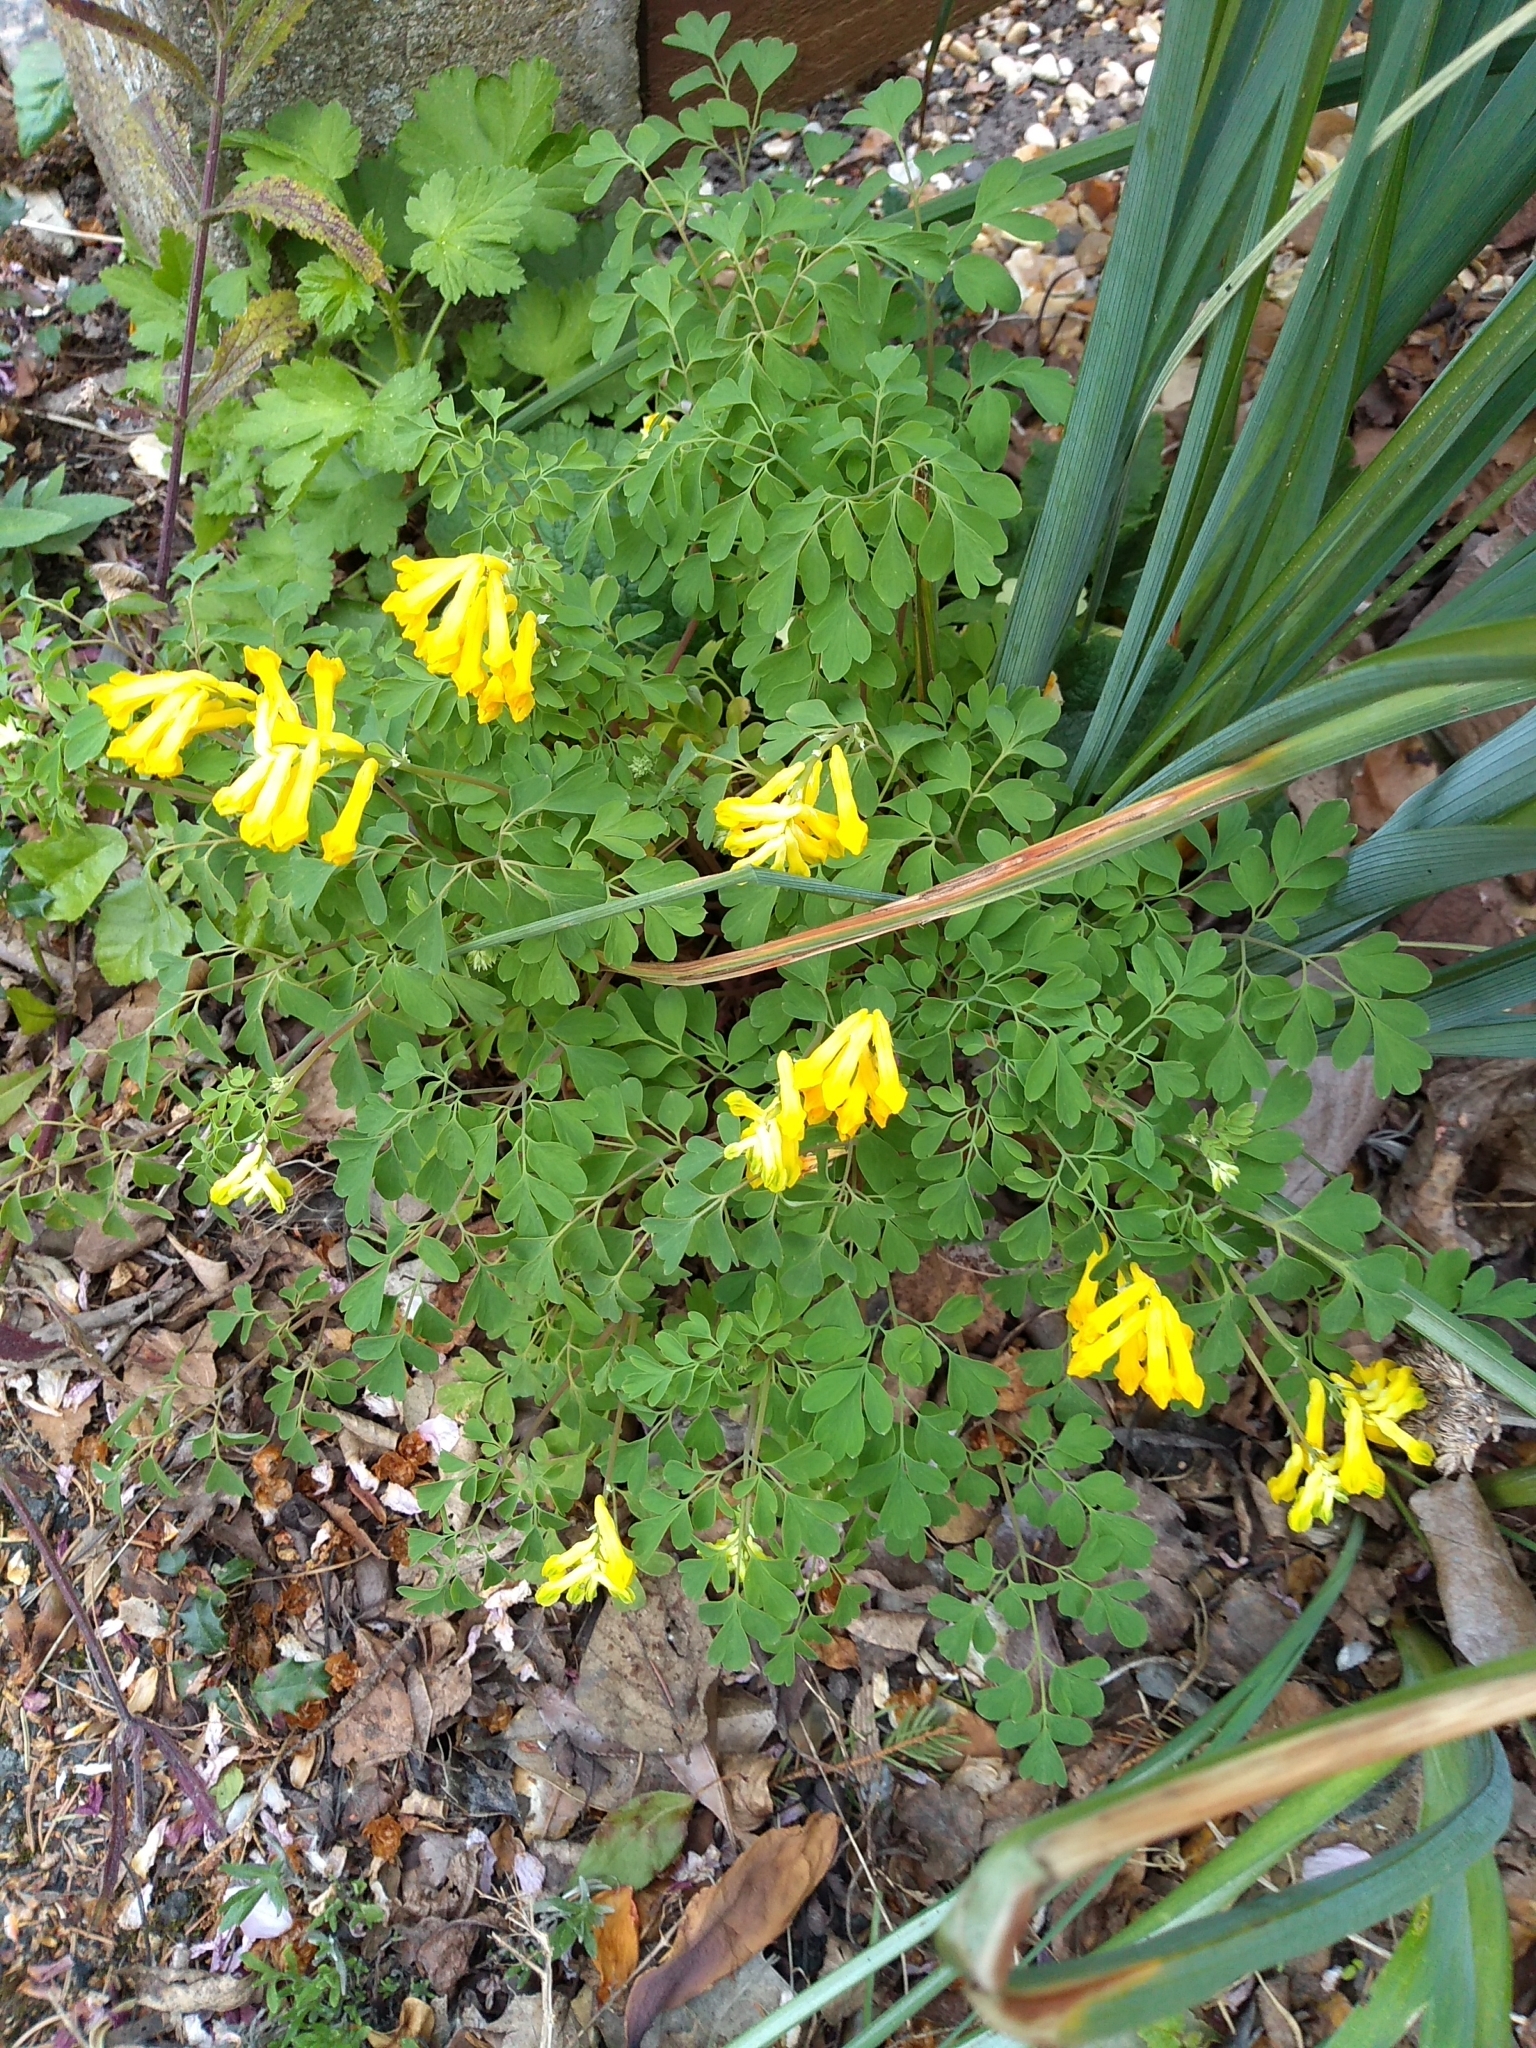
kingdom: Plantae
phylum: Tracheophyta
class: Magnoliopsida
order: Ranunculales
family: Papaveraceae
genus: Pseudofumaria
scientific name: Pseudofumaria lutea
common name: Yellow corydalis
